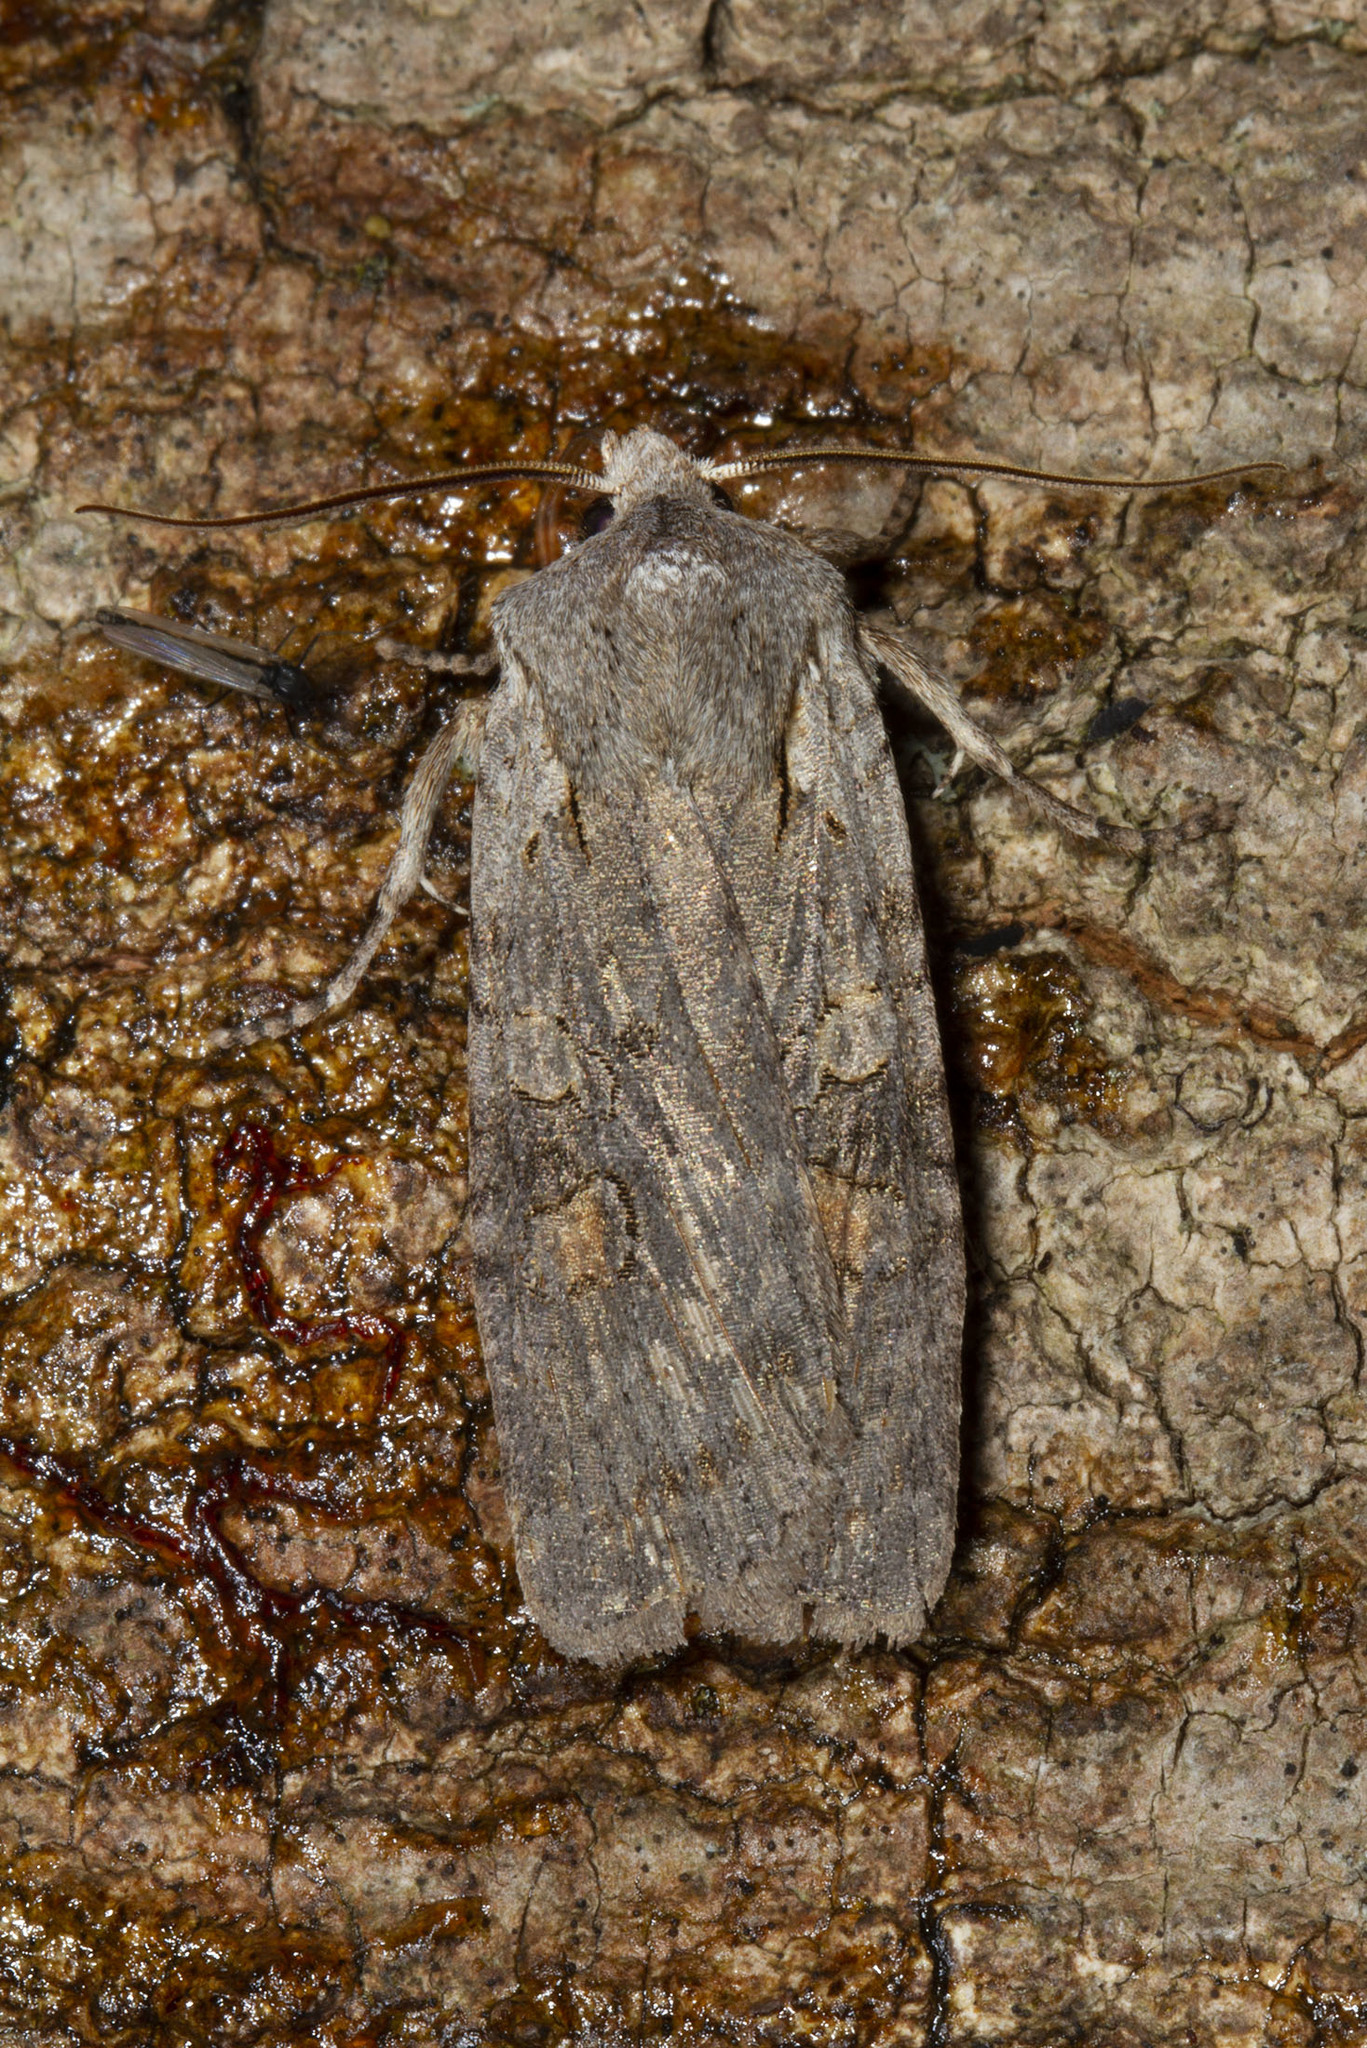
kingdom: Animalia
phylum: Arthropoda
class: Insecta
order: Lepidoptera
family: Noctuidae
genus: Lithophane
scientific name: Lithophane antennata
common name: Ashen pinion
